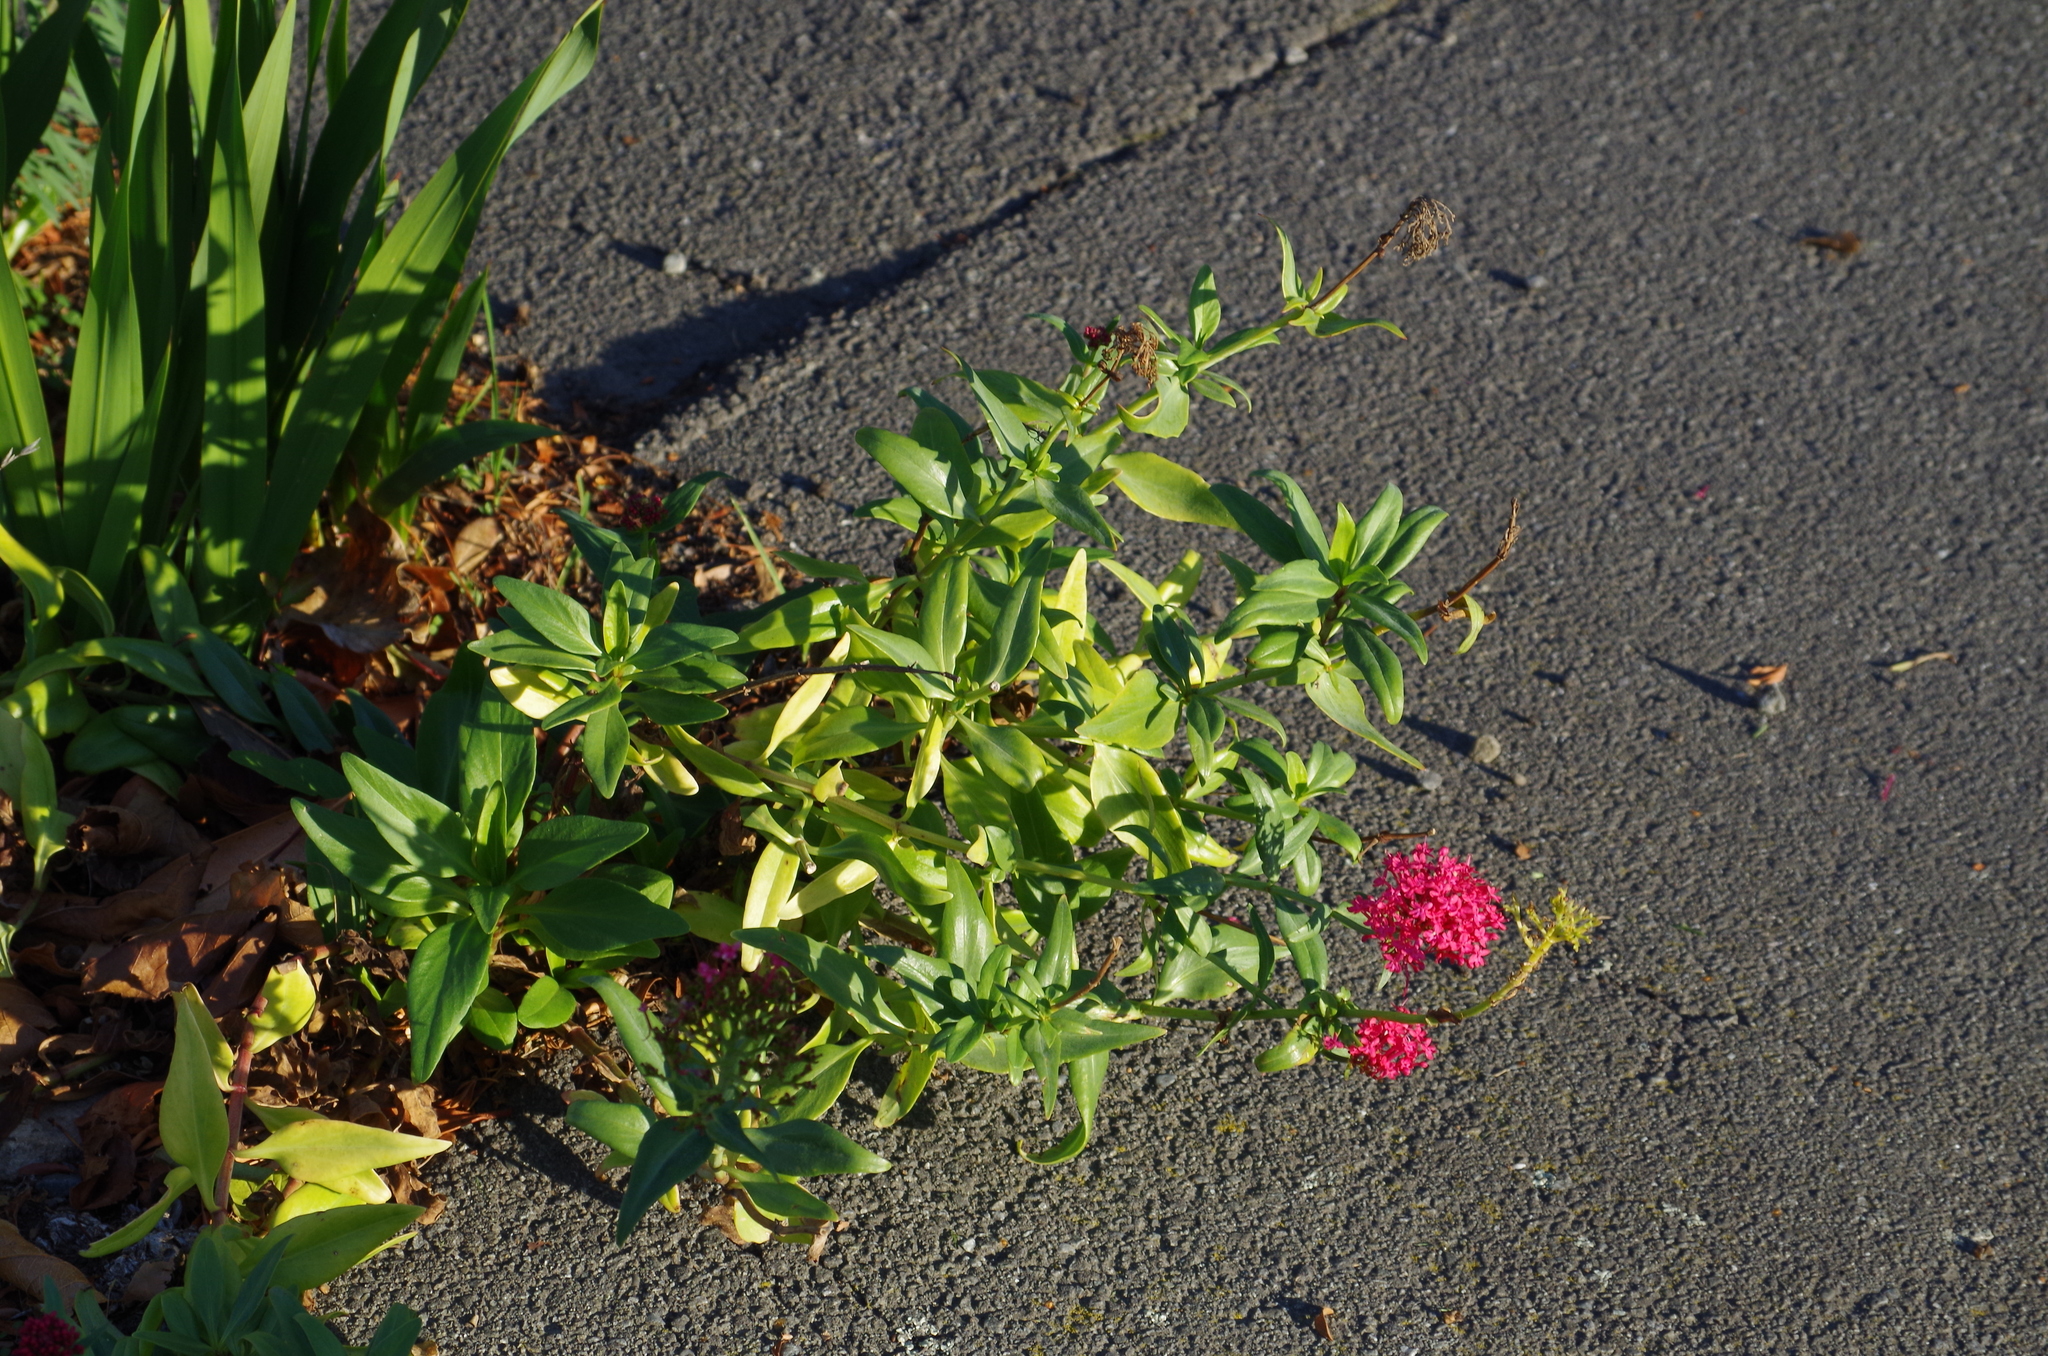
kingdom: Plantae
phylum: Tracheophyta
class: Magnoliopsida
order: Dipsacales
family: Caprifoliaceae
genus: Centranthus
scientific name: Centranthus ruber
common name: Red valerian
